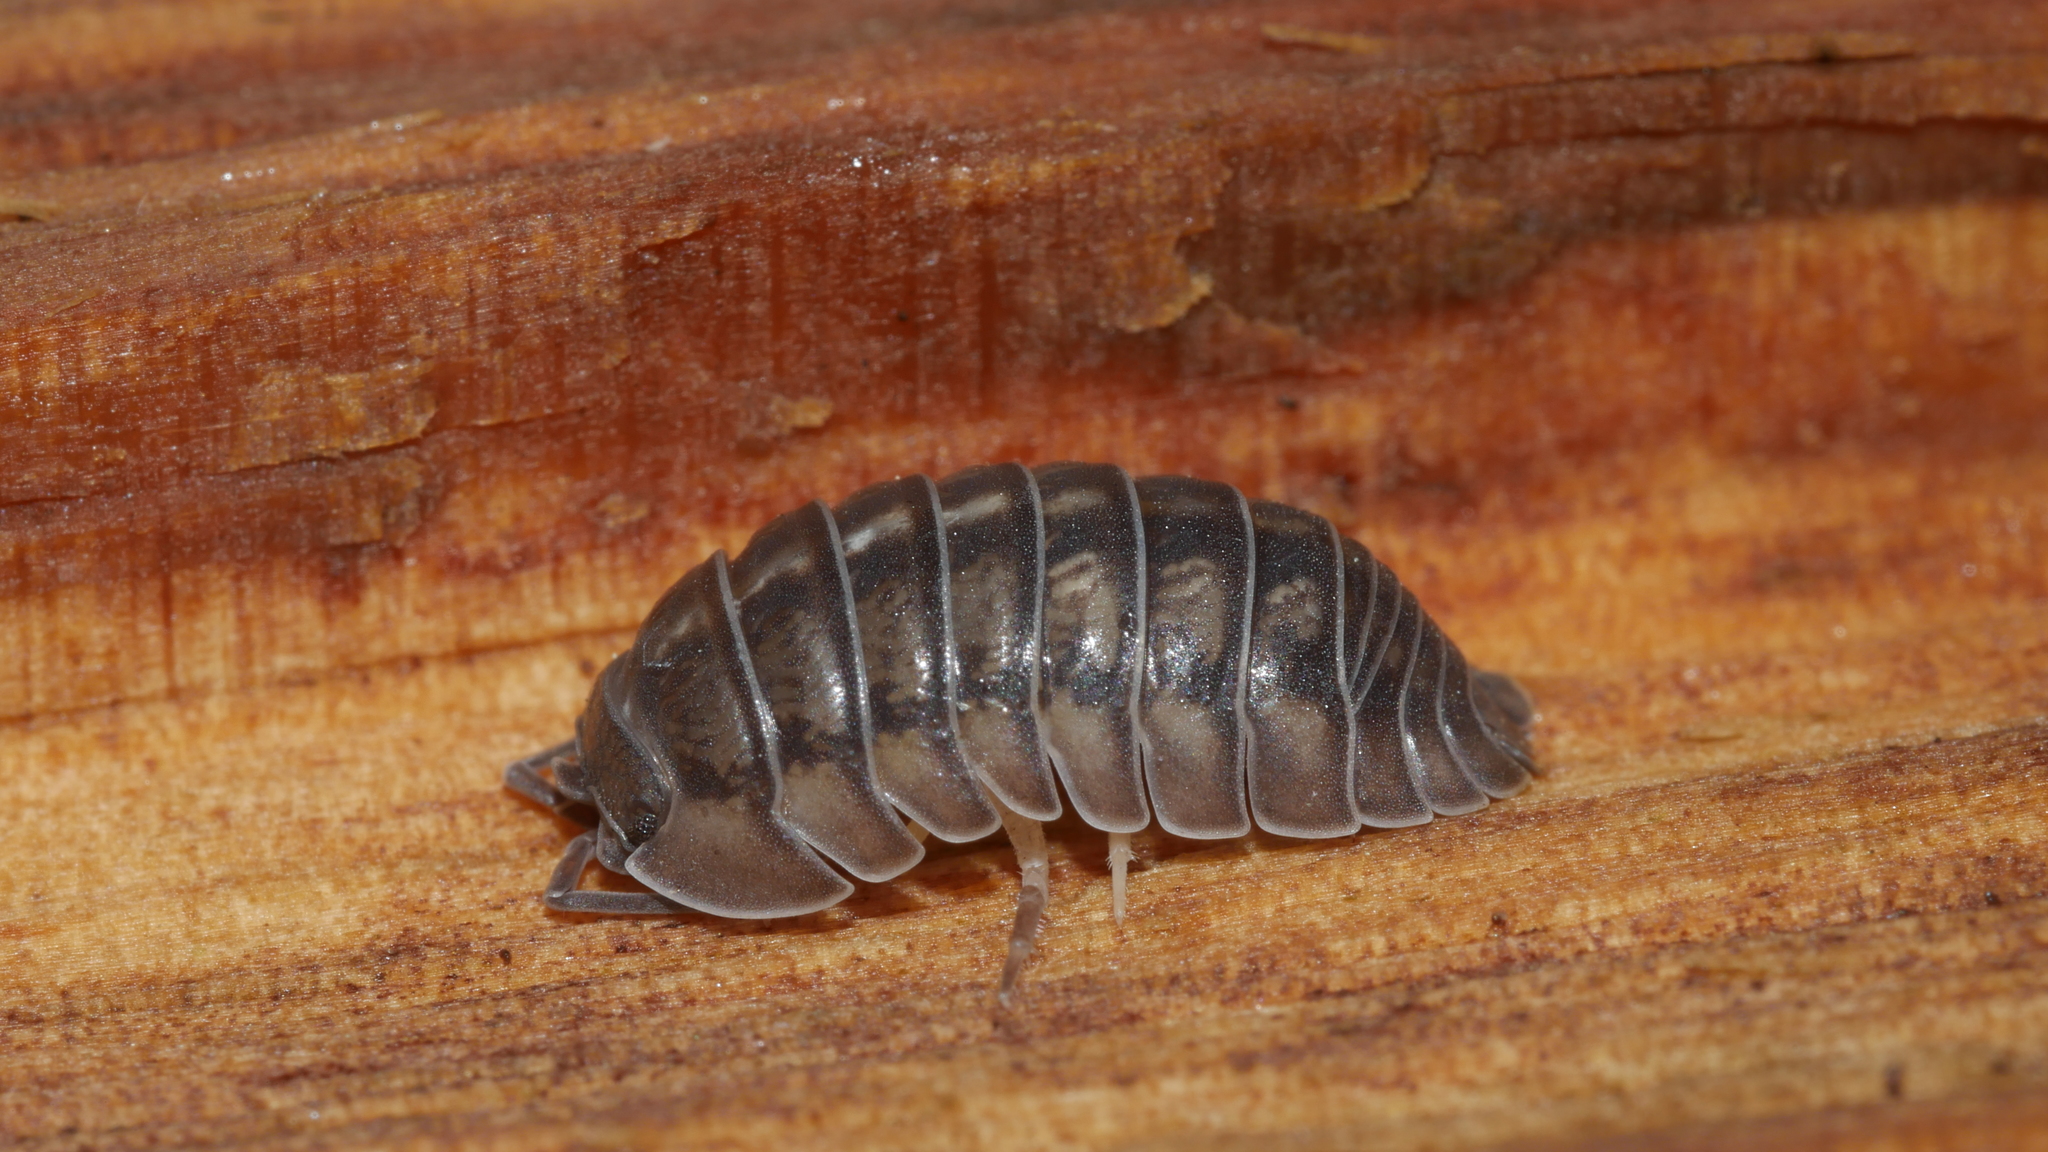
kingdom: Animalia
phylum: Arthropoda
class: Malacostraca
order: Isopoda
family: Armadillidiidae
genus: Armadillidium
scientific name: Armadillidium nasatum
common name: Isopod
